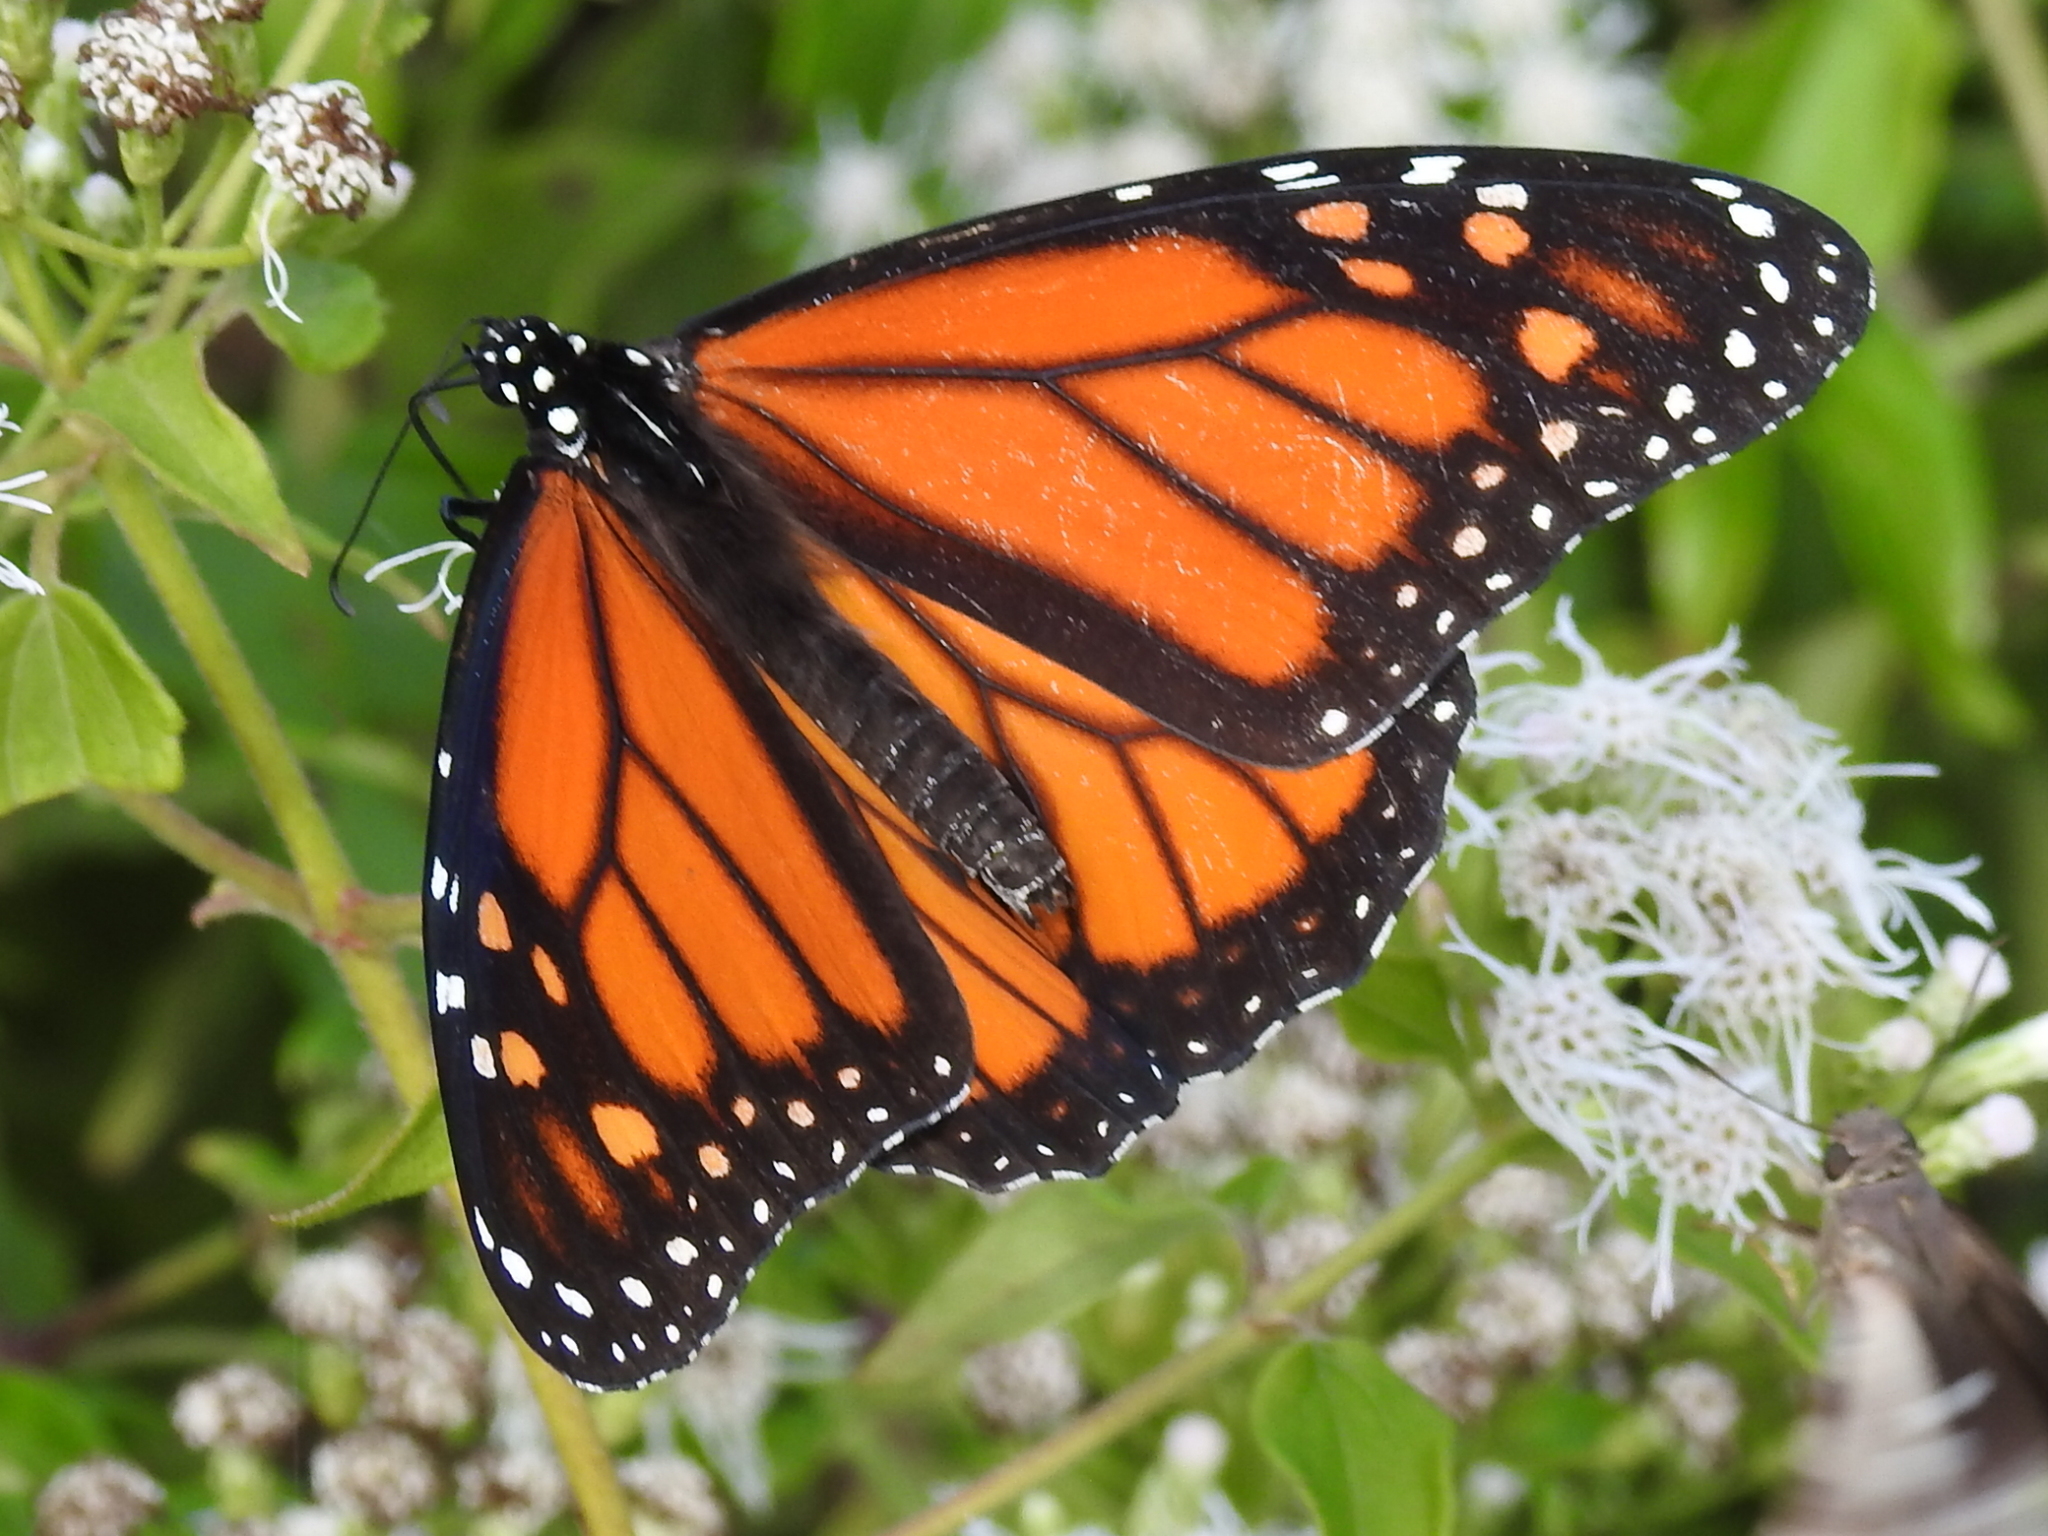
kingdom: Animalia
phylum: Arthropoda
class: Insecta
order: Lepidoptera
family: Nymphalidae
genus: Danaus
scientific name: Danaus plexippus
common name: Monarch
